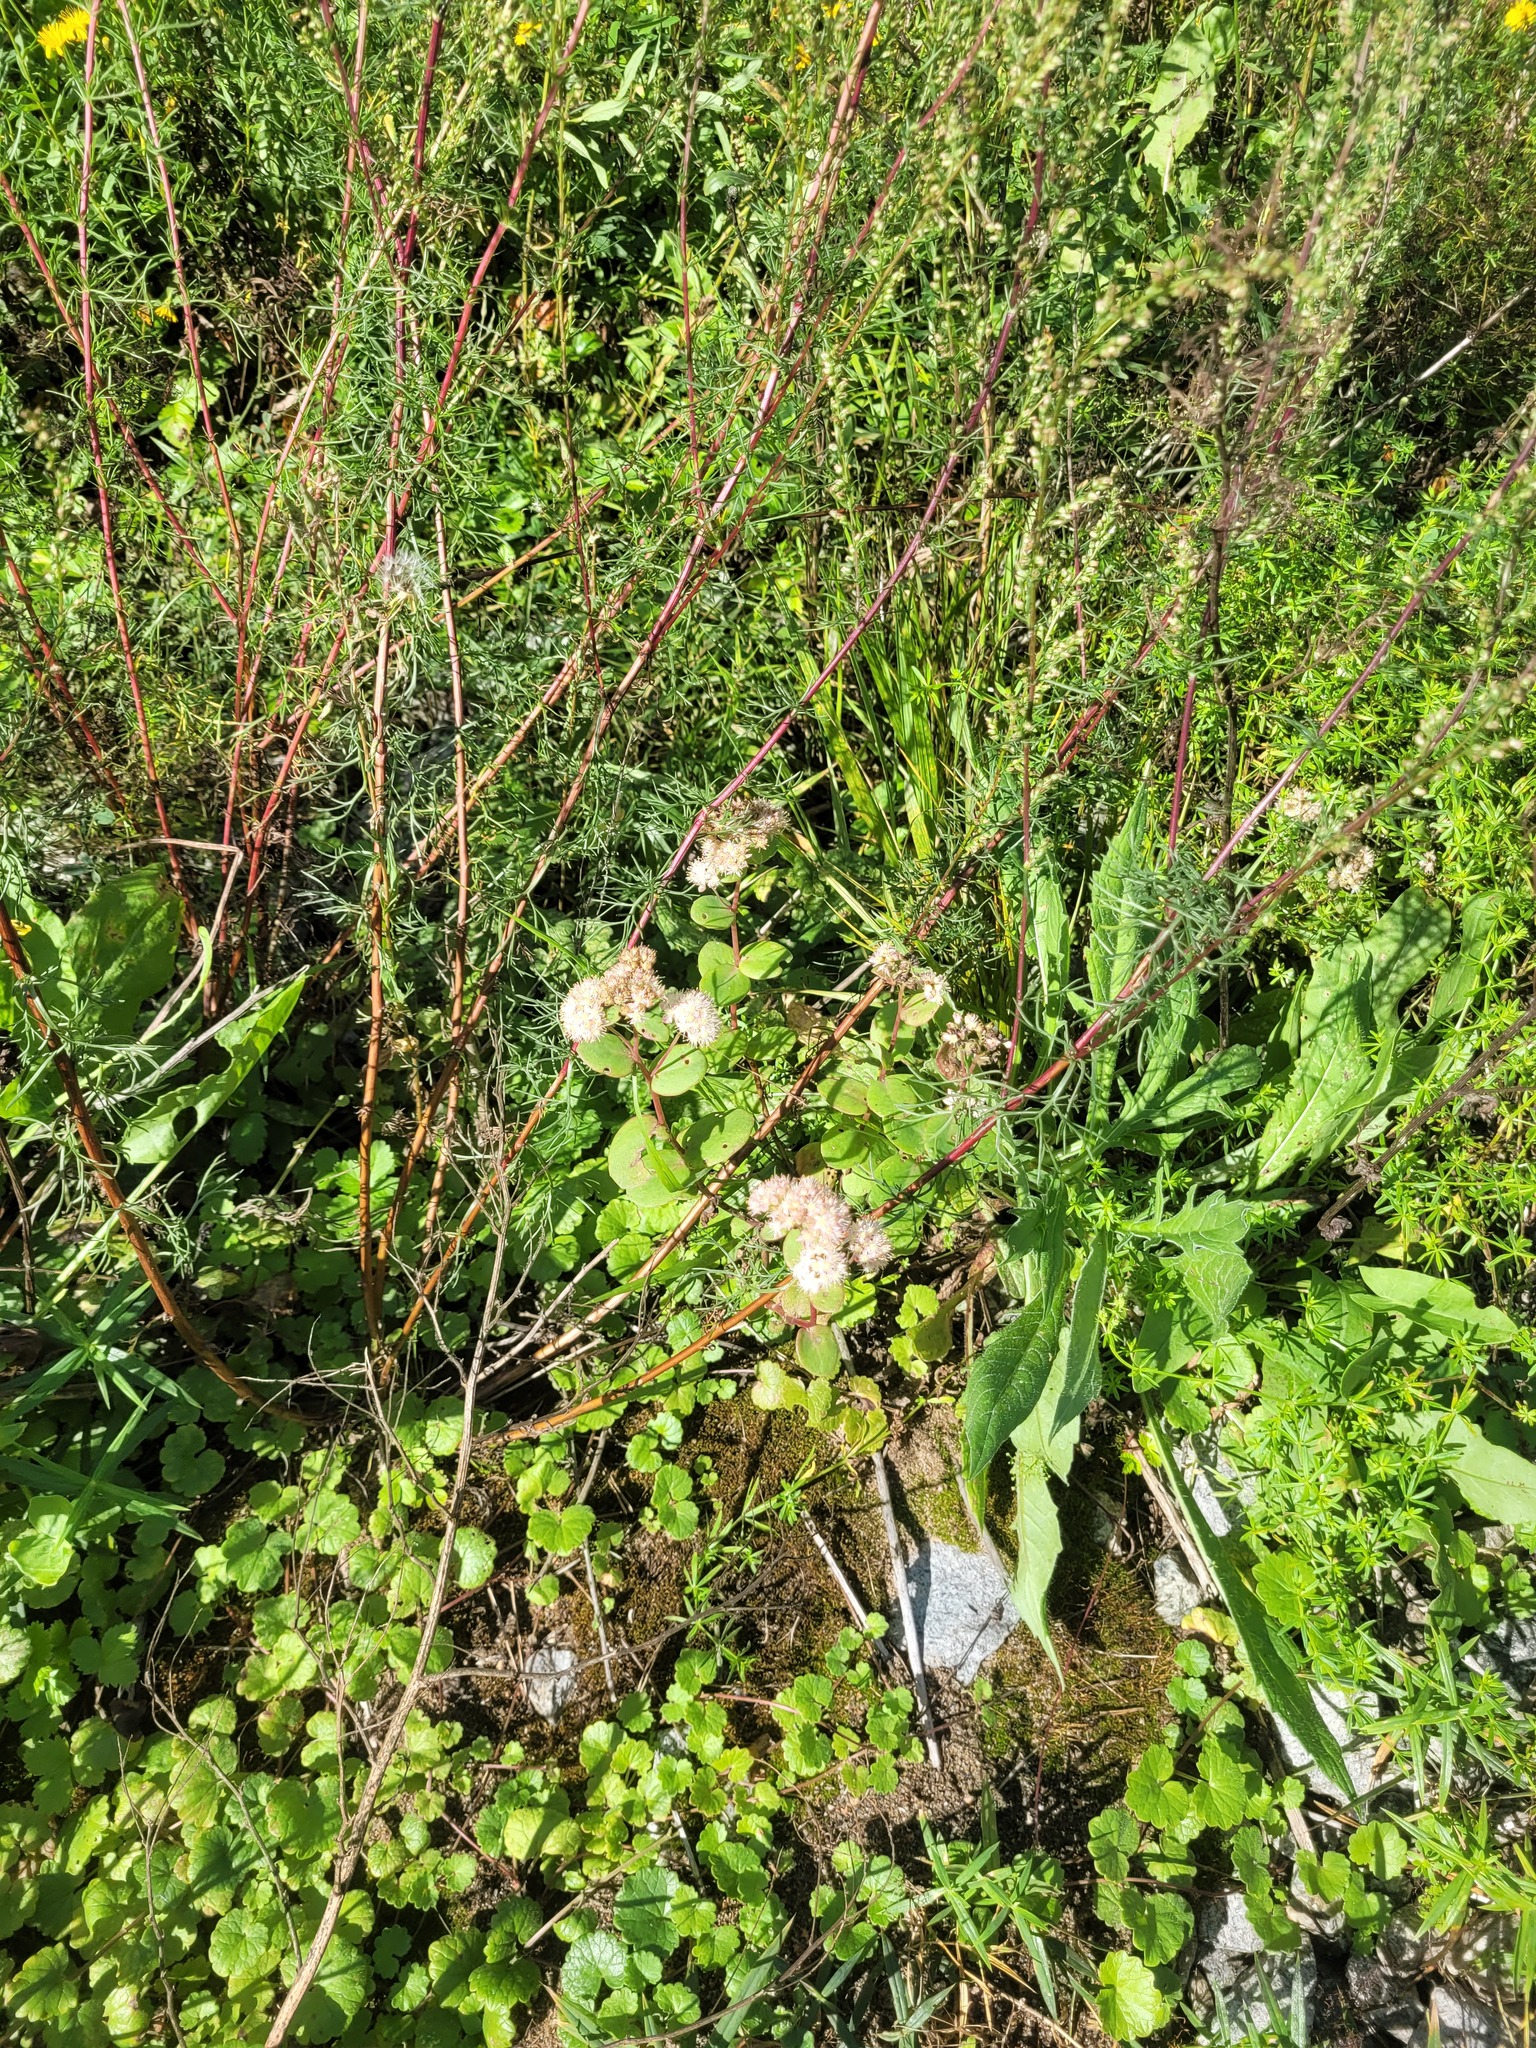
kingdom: Plantae
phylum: Tracheophyta
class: Magnoliopsida
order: Saxifragales
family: Crassulaceae
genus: Hylotelephium
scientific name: Hylotelephium maximum
